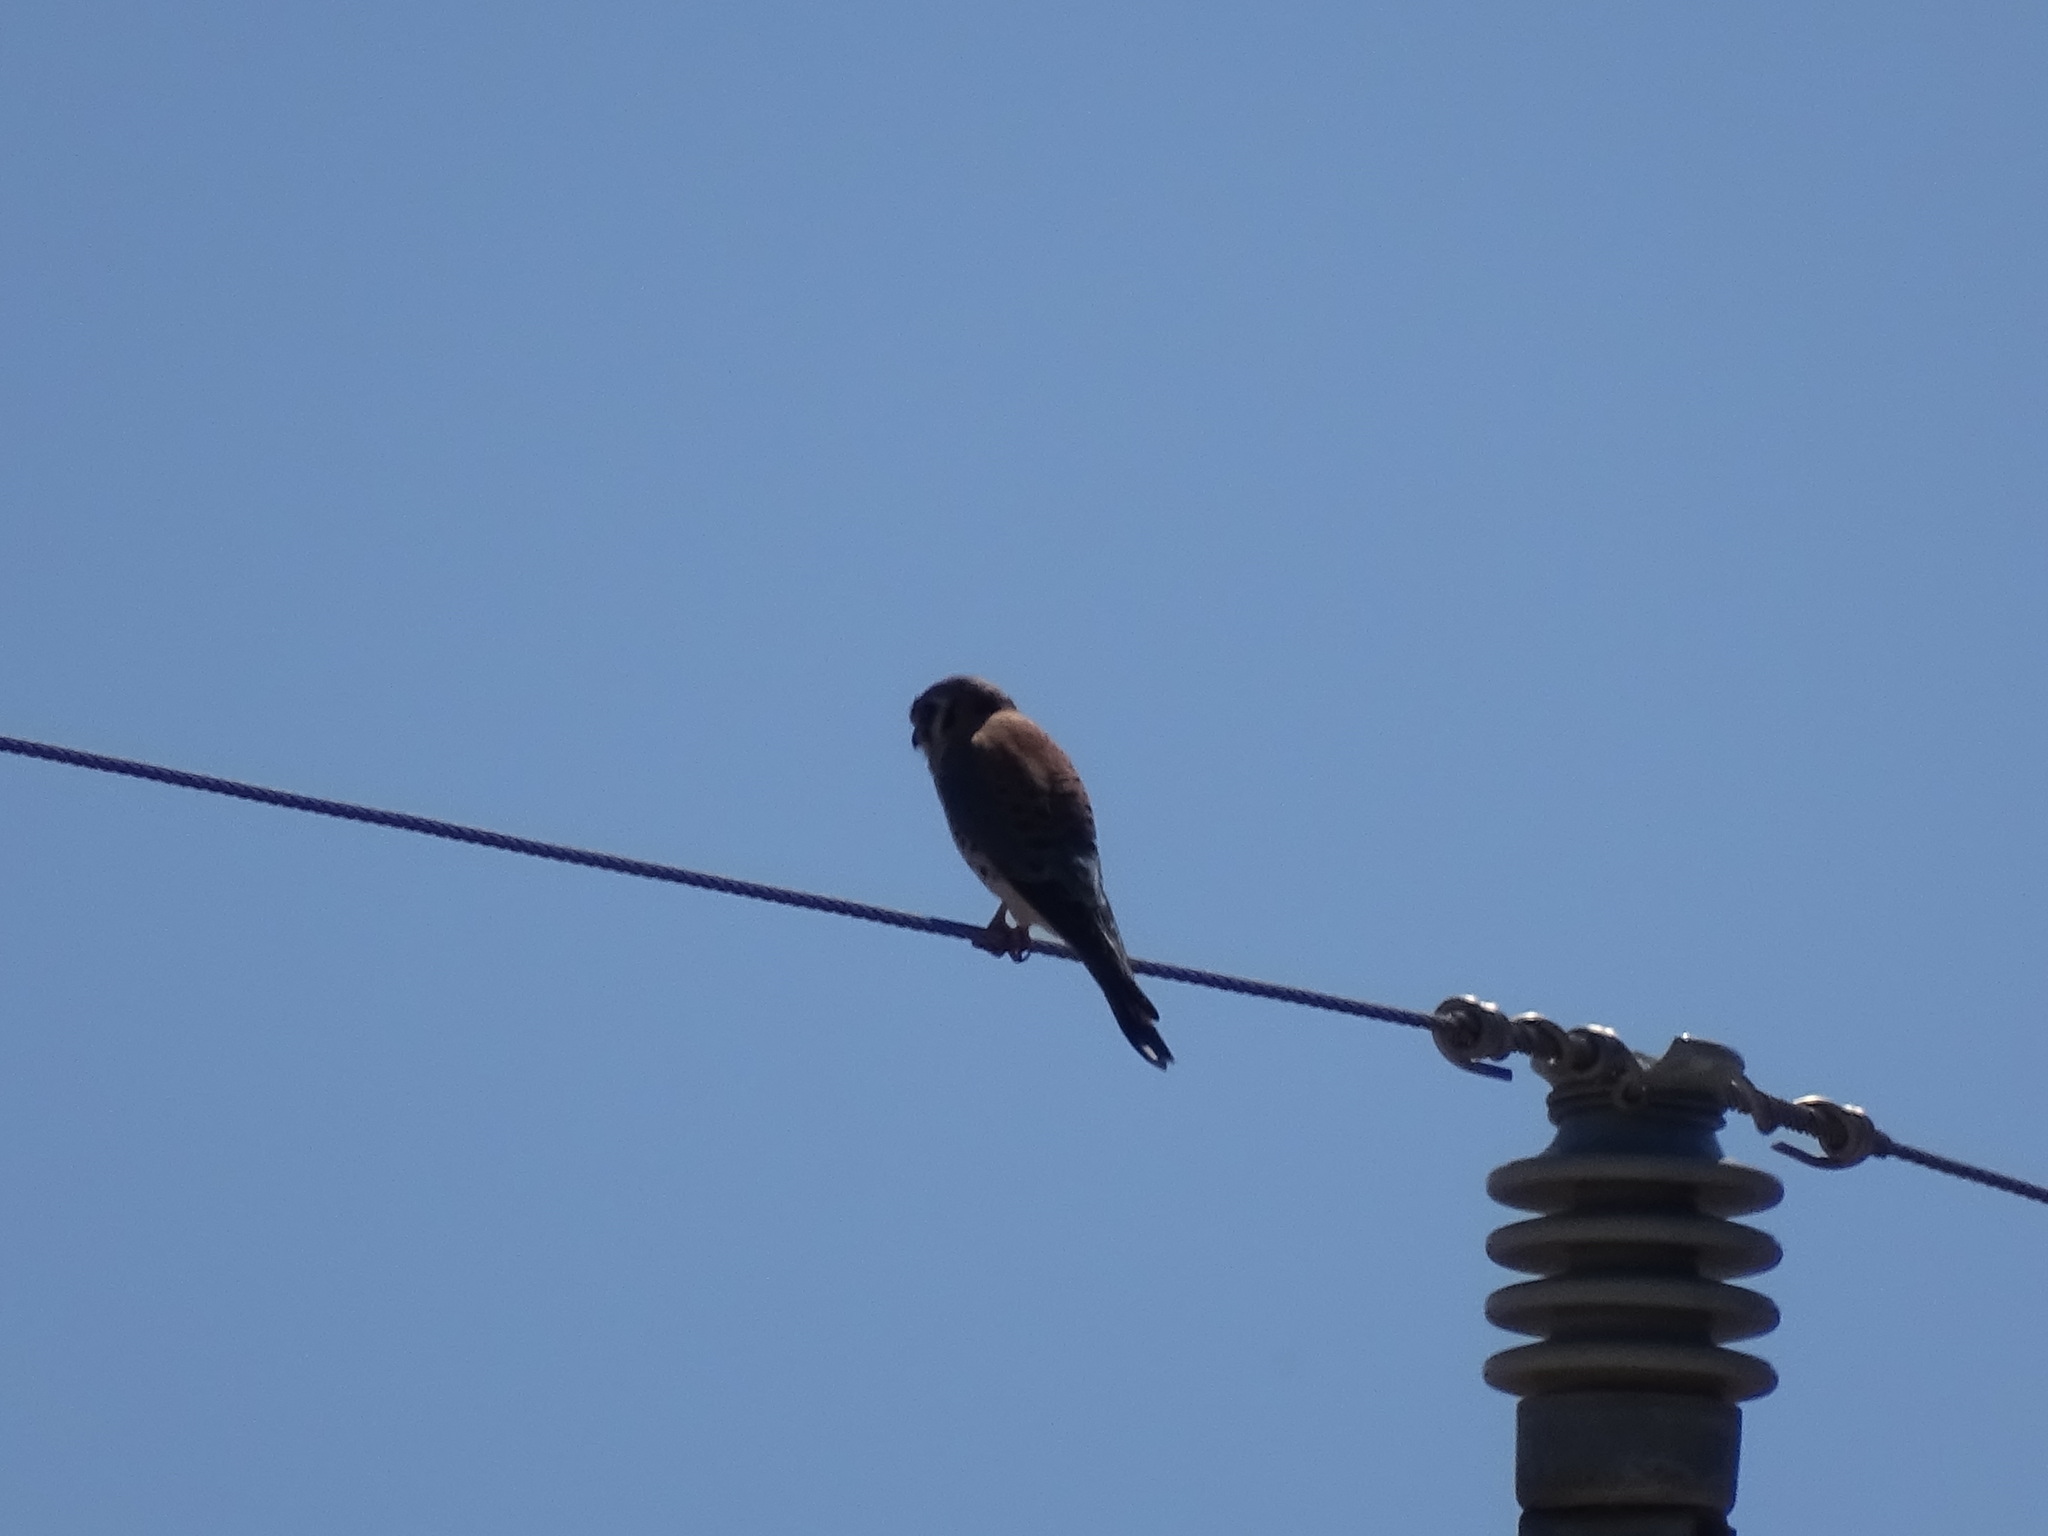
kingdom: Animalia
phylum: Chordata
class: Aves
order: Falconiformes
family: Falconidae
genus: Falco
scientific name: Falco sparverius
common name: American kestrel
